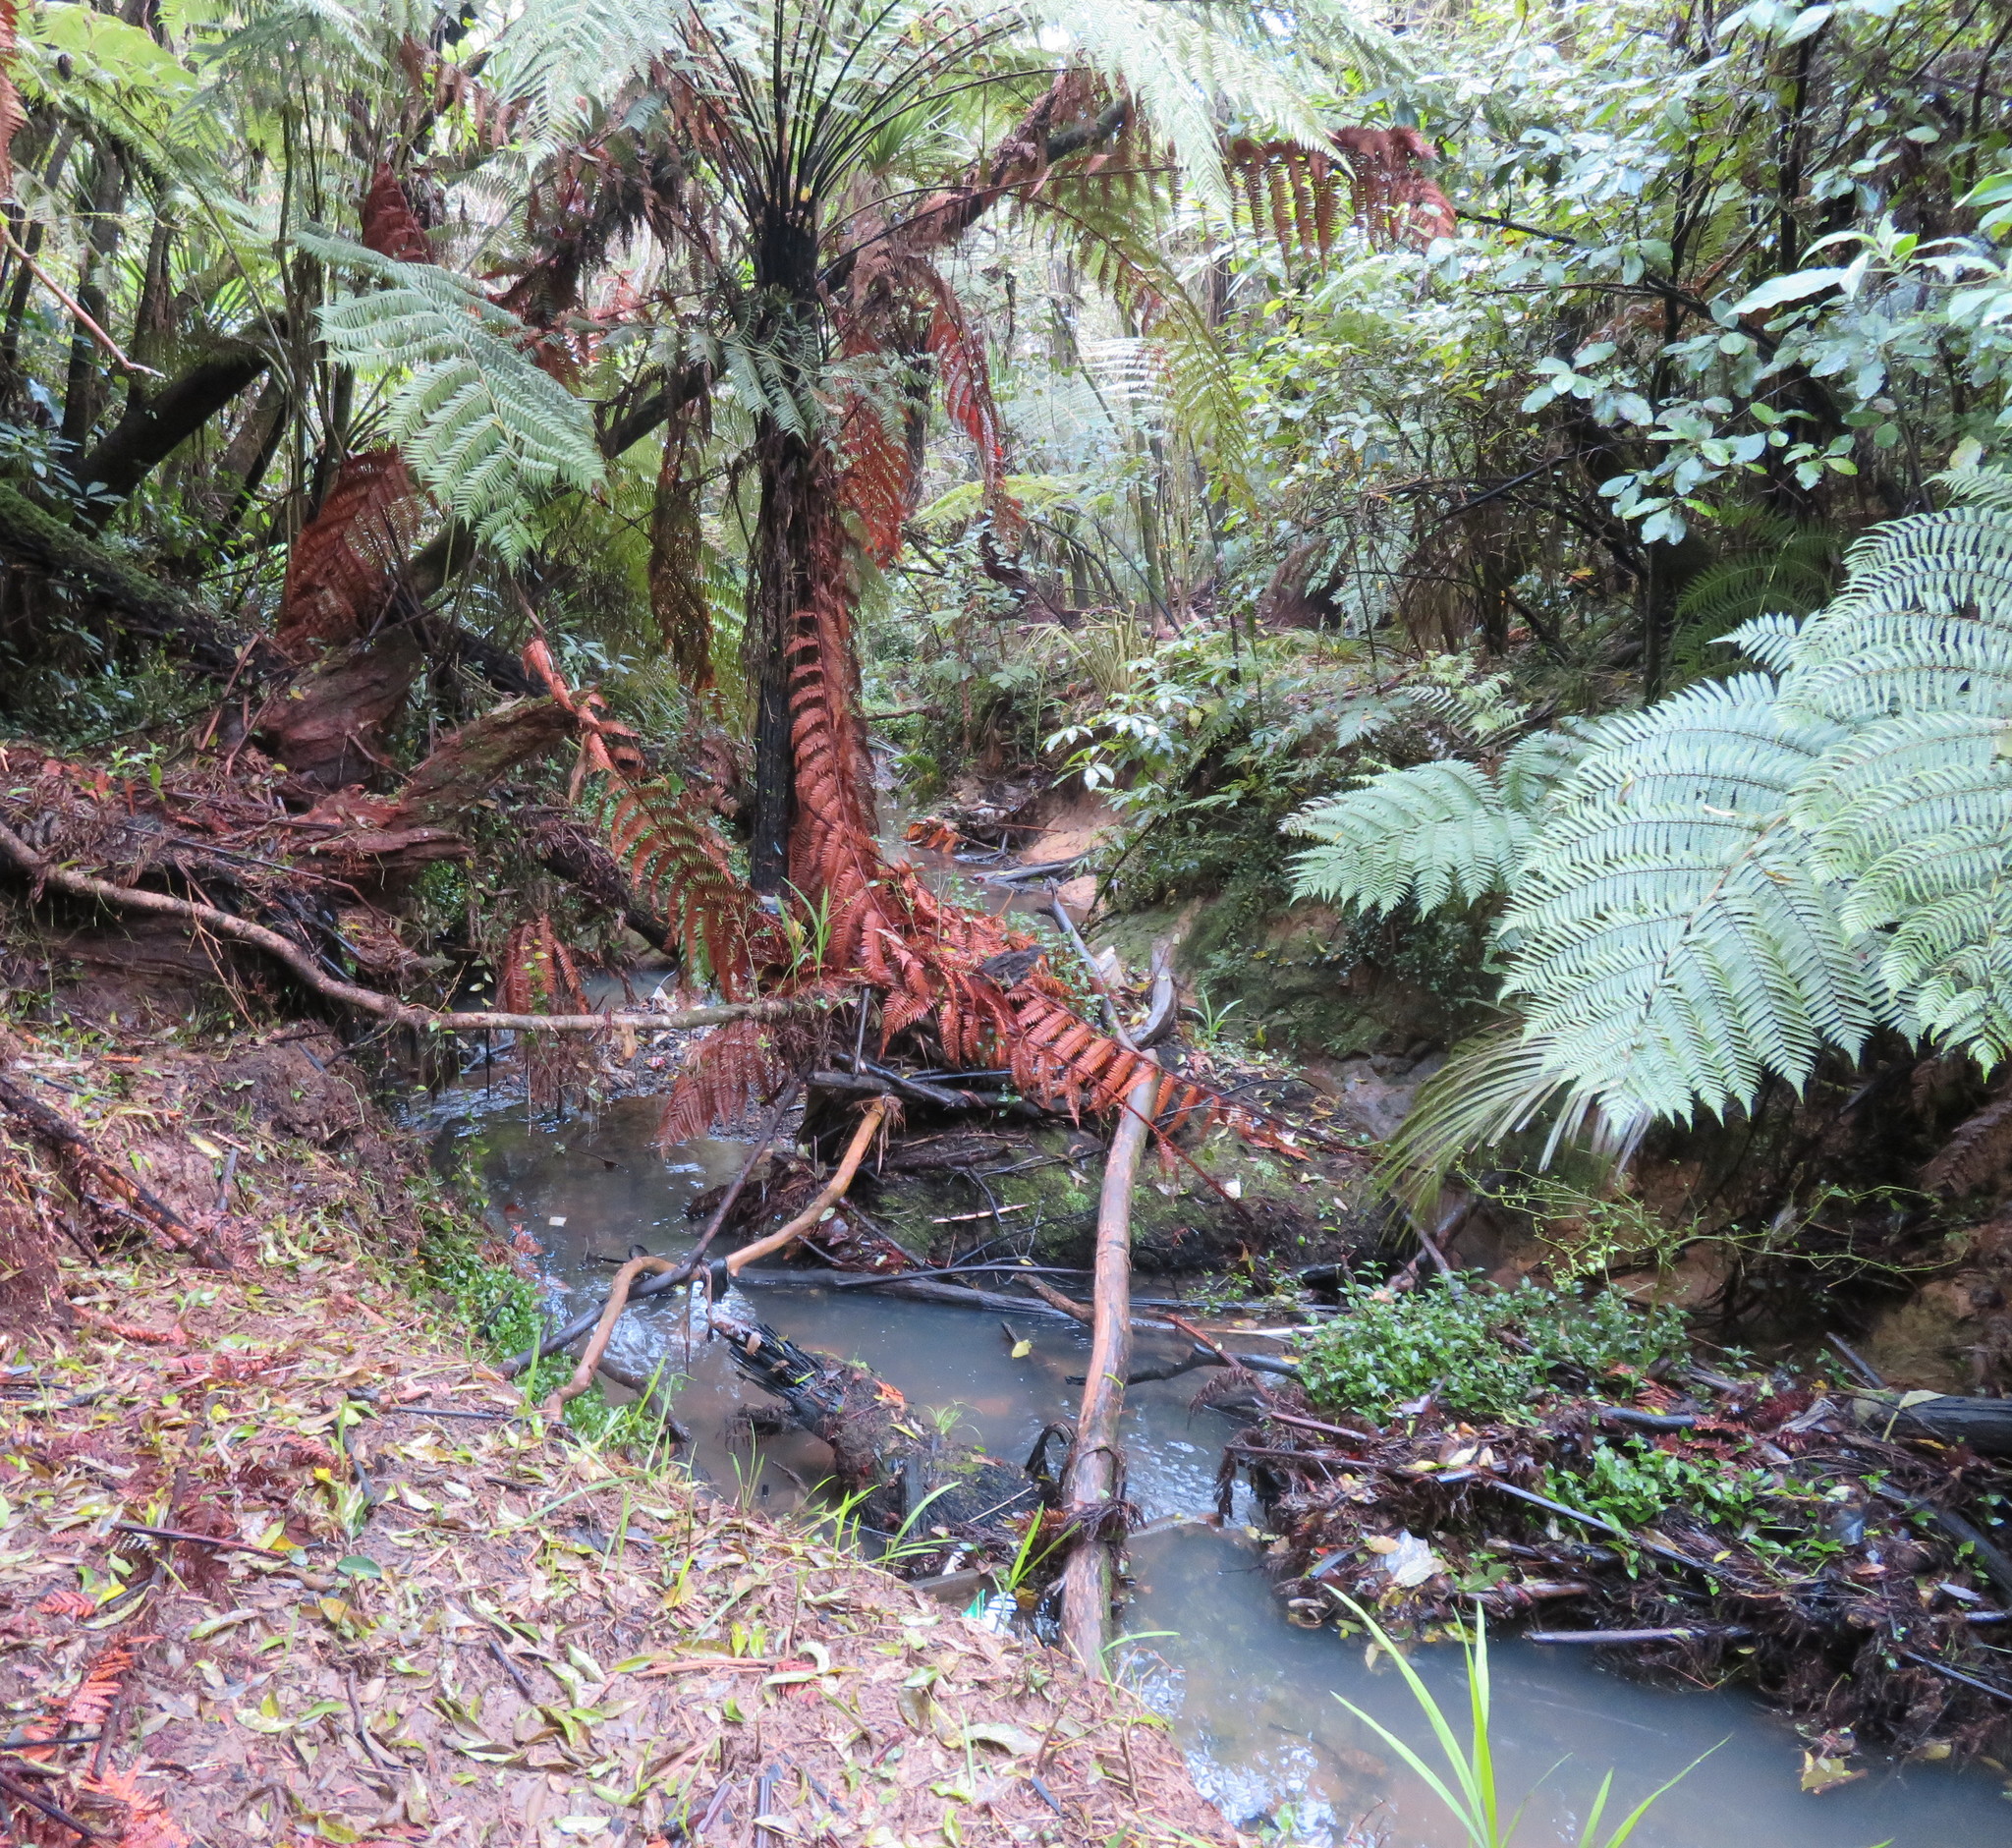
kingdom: Plantae
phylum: Tracheophyta
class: Liliopsida
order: Commelinales
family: Commelinaceae
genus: Tradescantia
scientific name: Tradescantia fluminensis
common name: Wandering-jew
